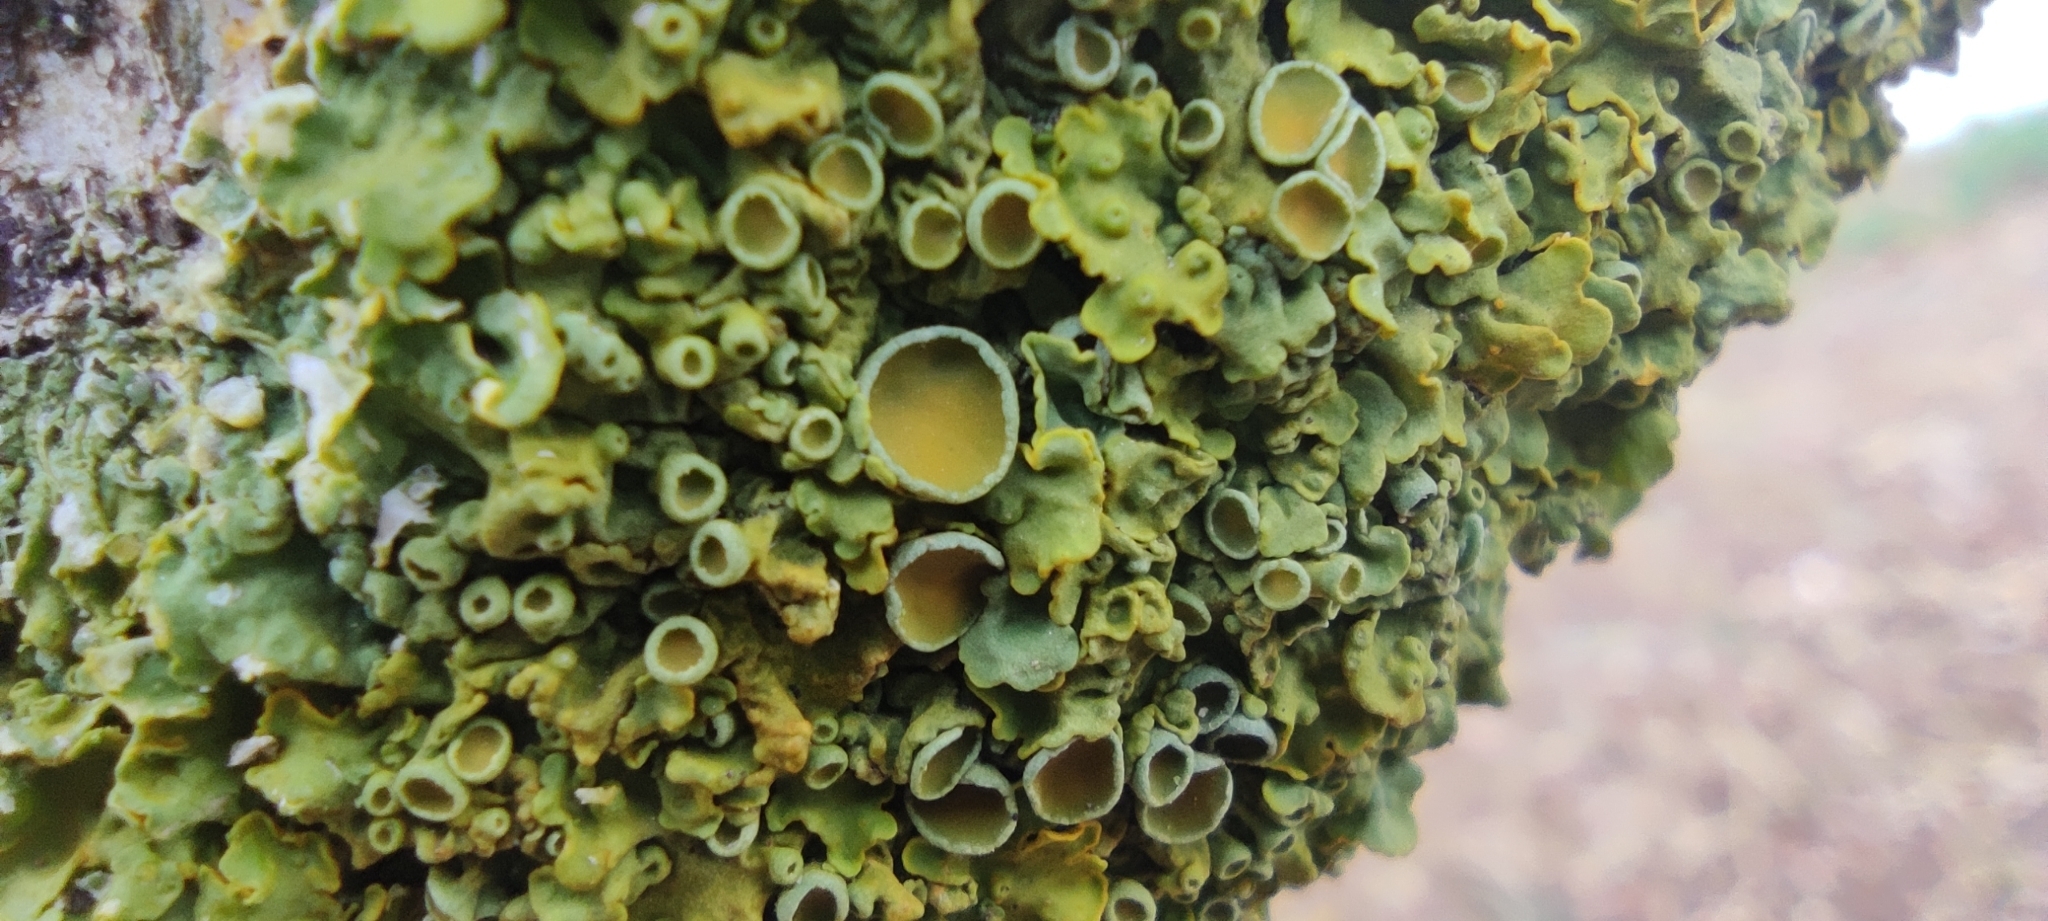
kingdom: Fungi
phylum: Ascomycota
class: Lecanoromycetes
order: Teloschistales
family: Teloschistaceae
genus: Xanthoria
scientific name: Xanthoria parietina
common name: Common orange lichen
